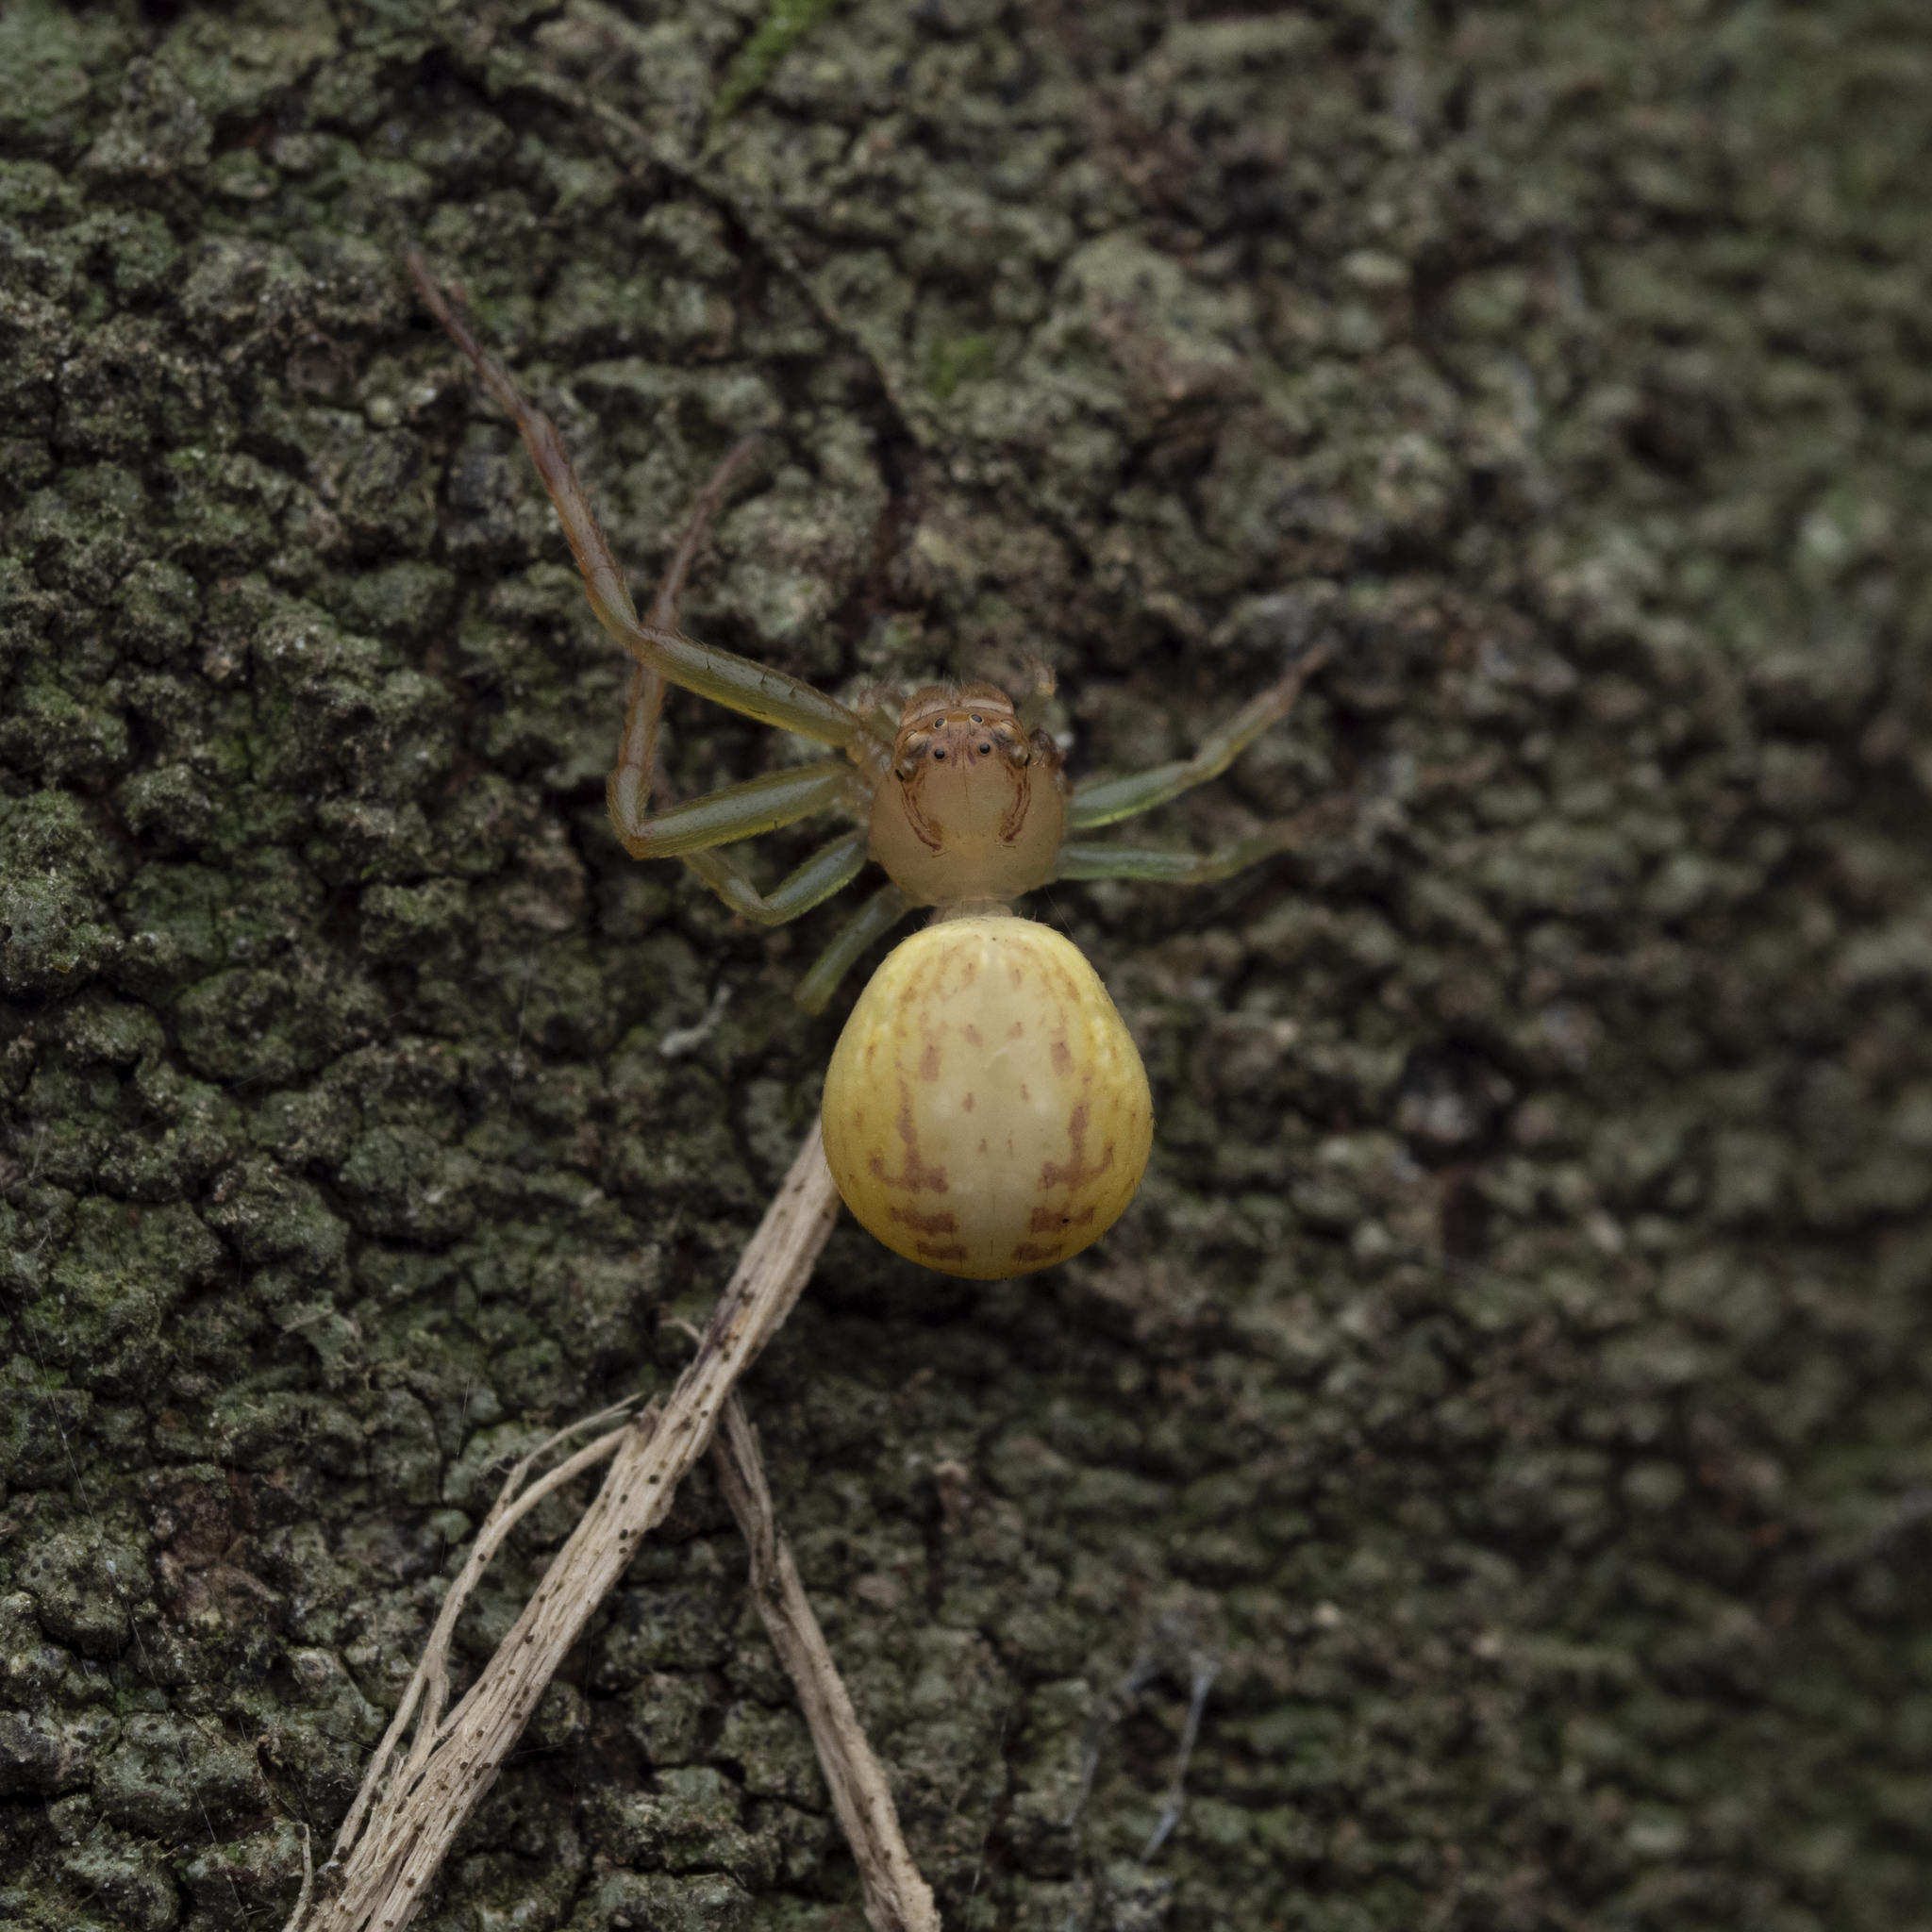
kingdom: Animalia
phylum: Arthropoda
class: Arachnida
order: Araneae
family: Thomisidae
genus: Diaea
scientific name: Diaea ambara
